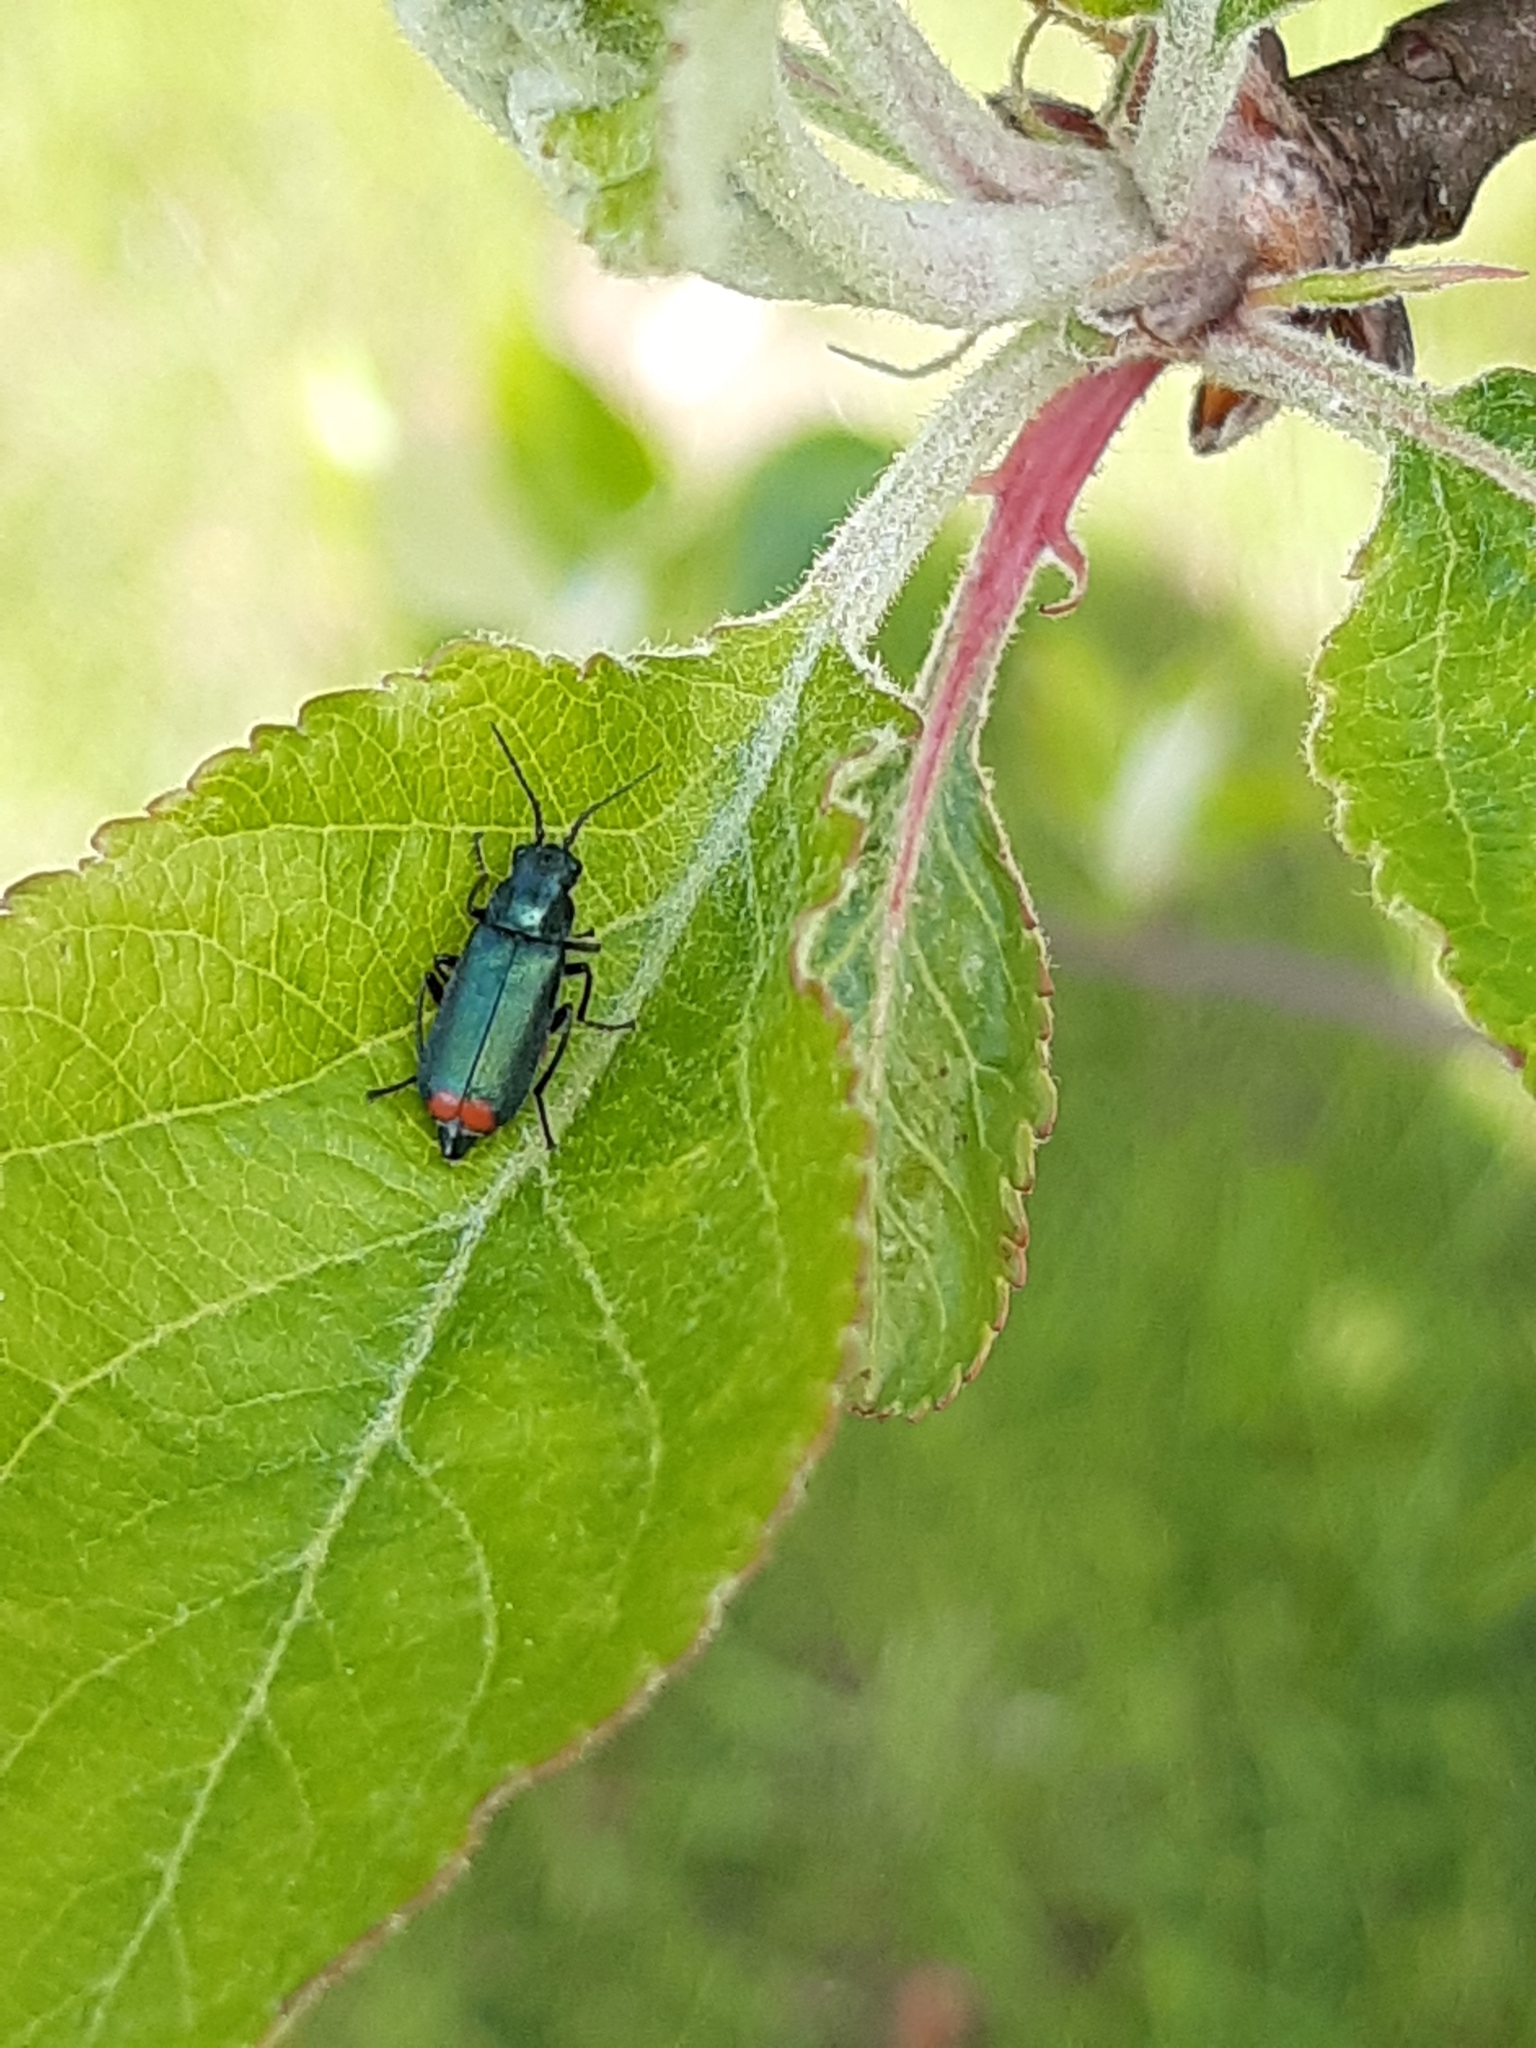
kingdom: Animalia
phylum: Arthropoda
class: Insecta
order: Coleoptera
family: Melyridae
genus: Malachius
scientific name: Malachius bipustulatus
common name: Malachite beetle
